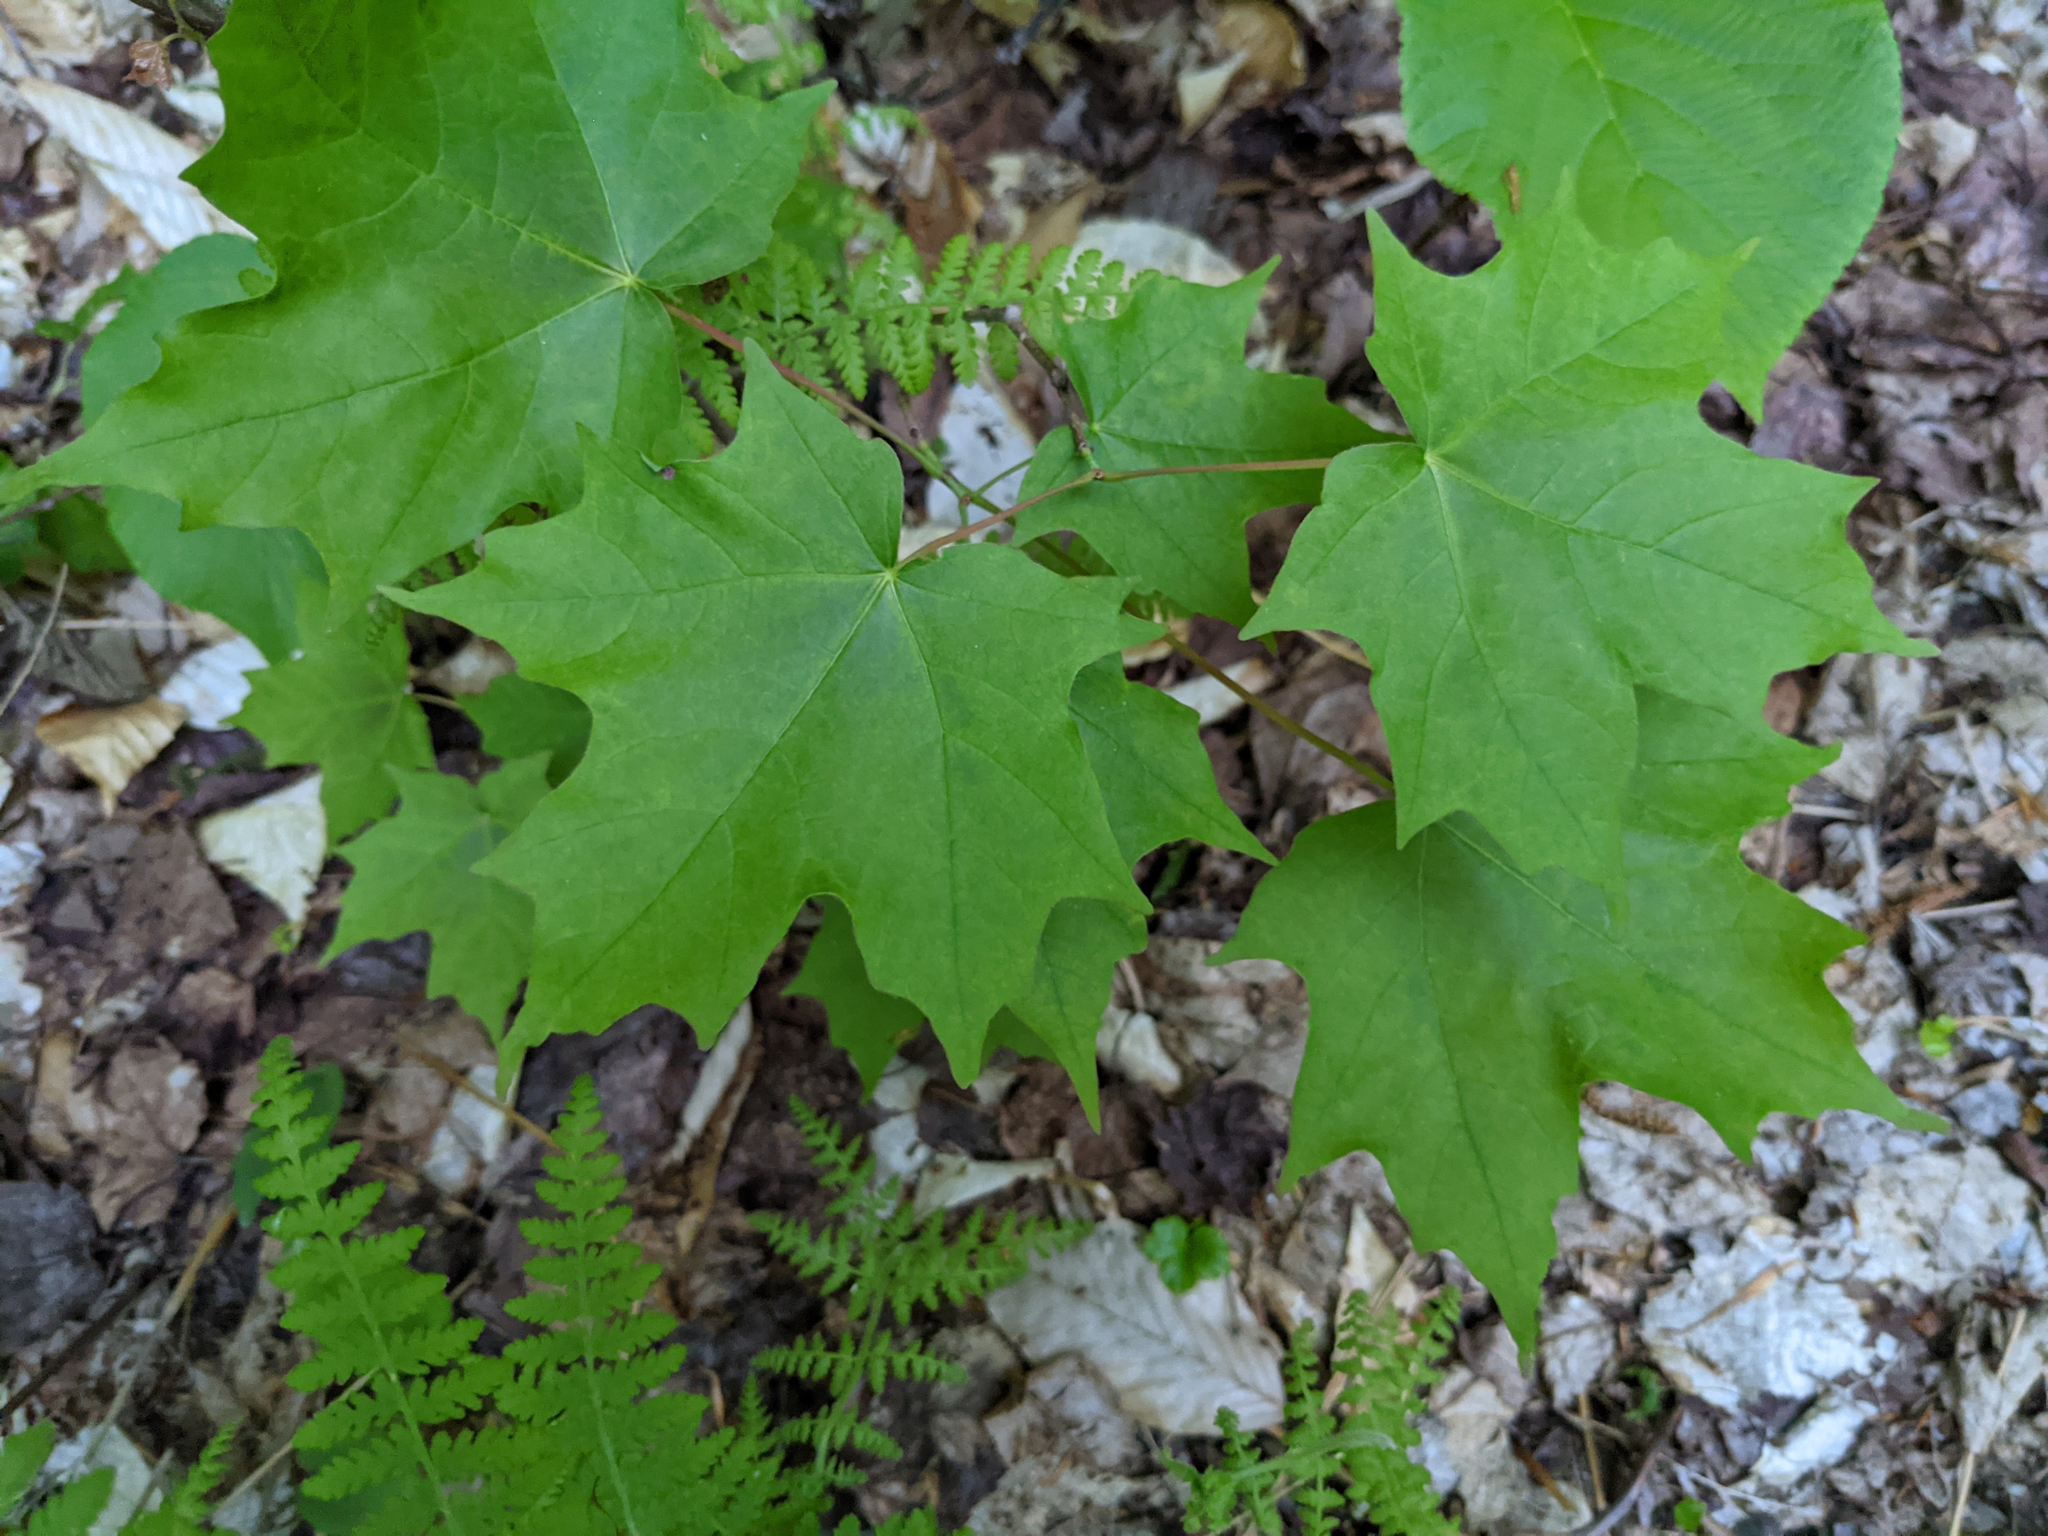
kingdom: Plantae
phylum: Tracheophyta
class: Magnoliopsida
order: Sapindales
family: Sapindaceae
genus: Acer
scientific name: Acer saccharum
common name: Sugar maple
